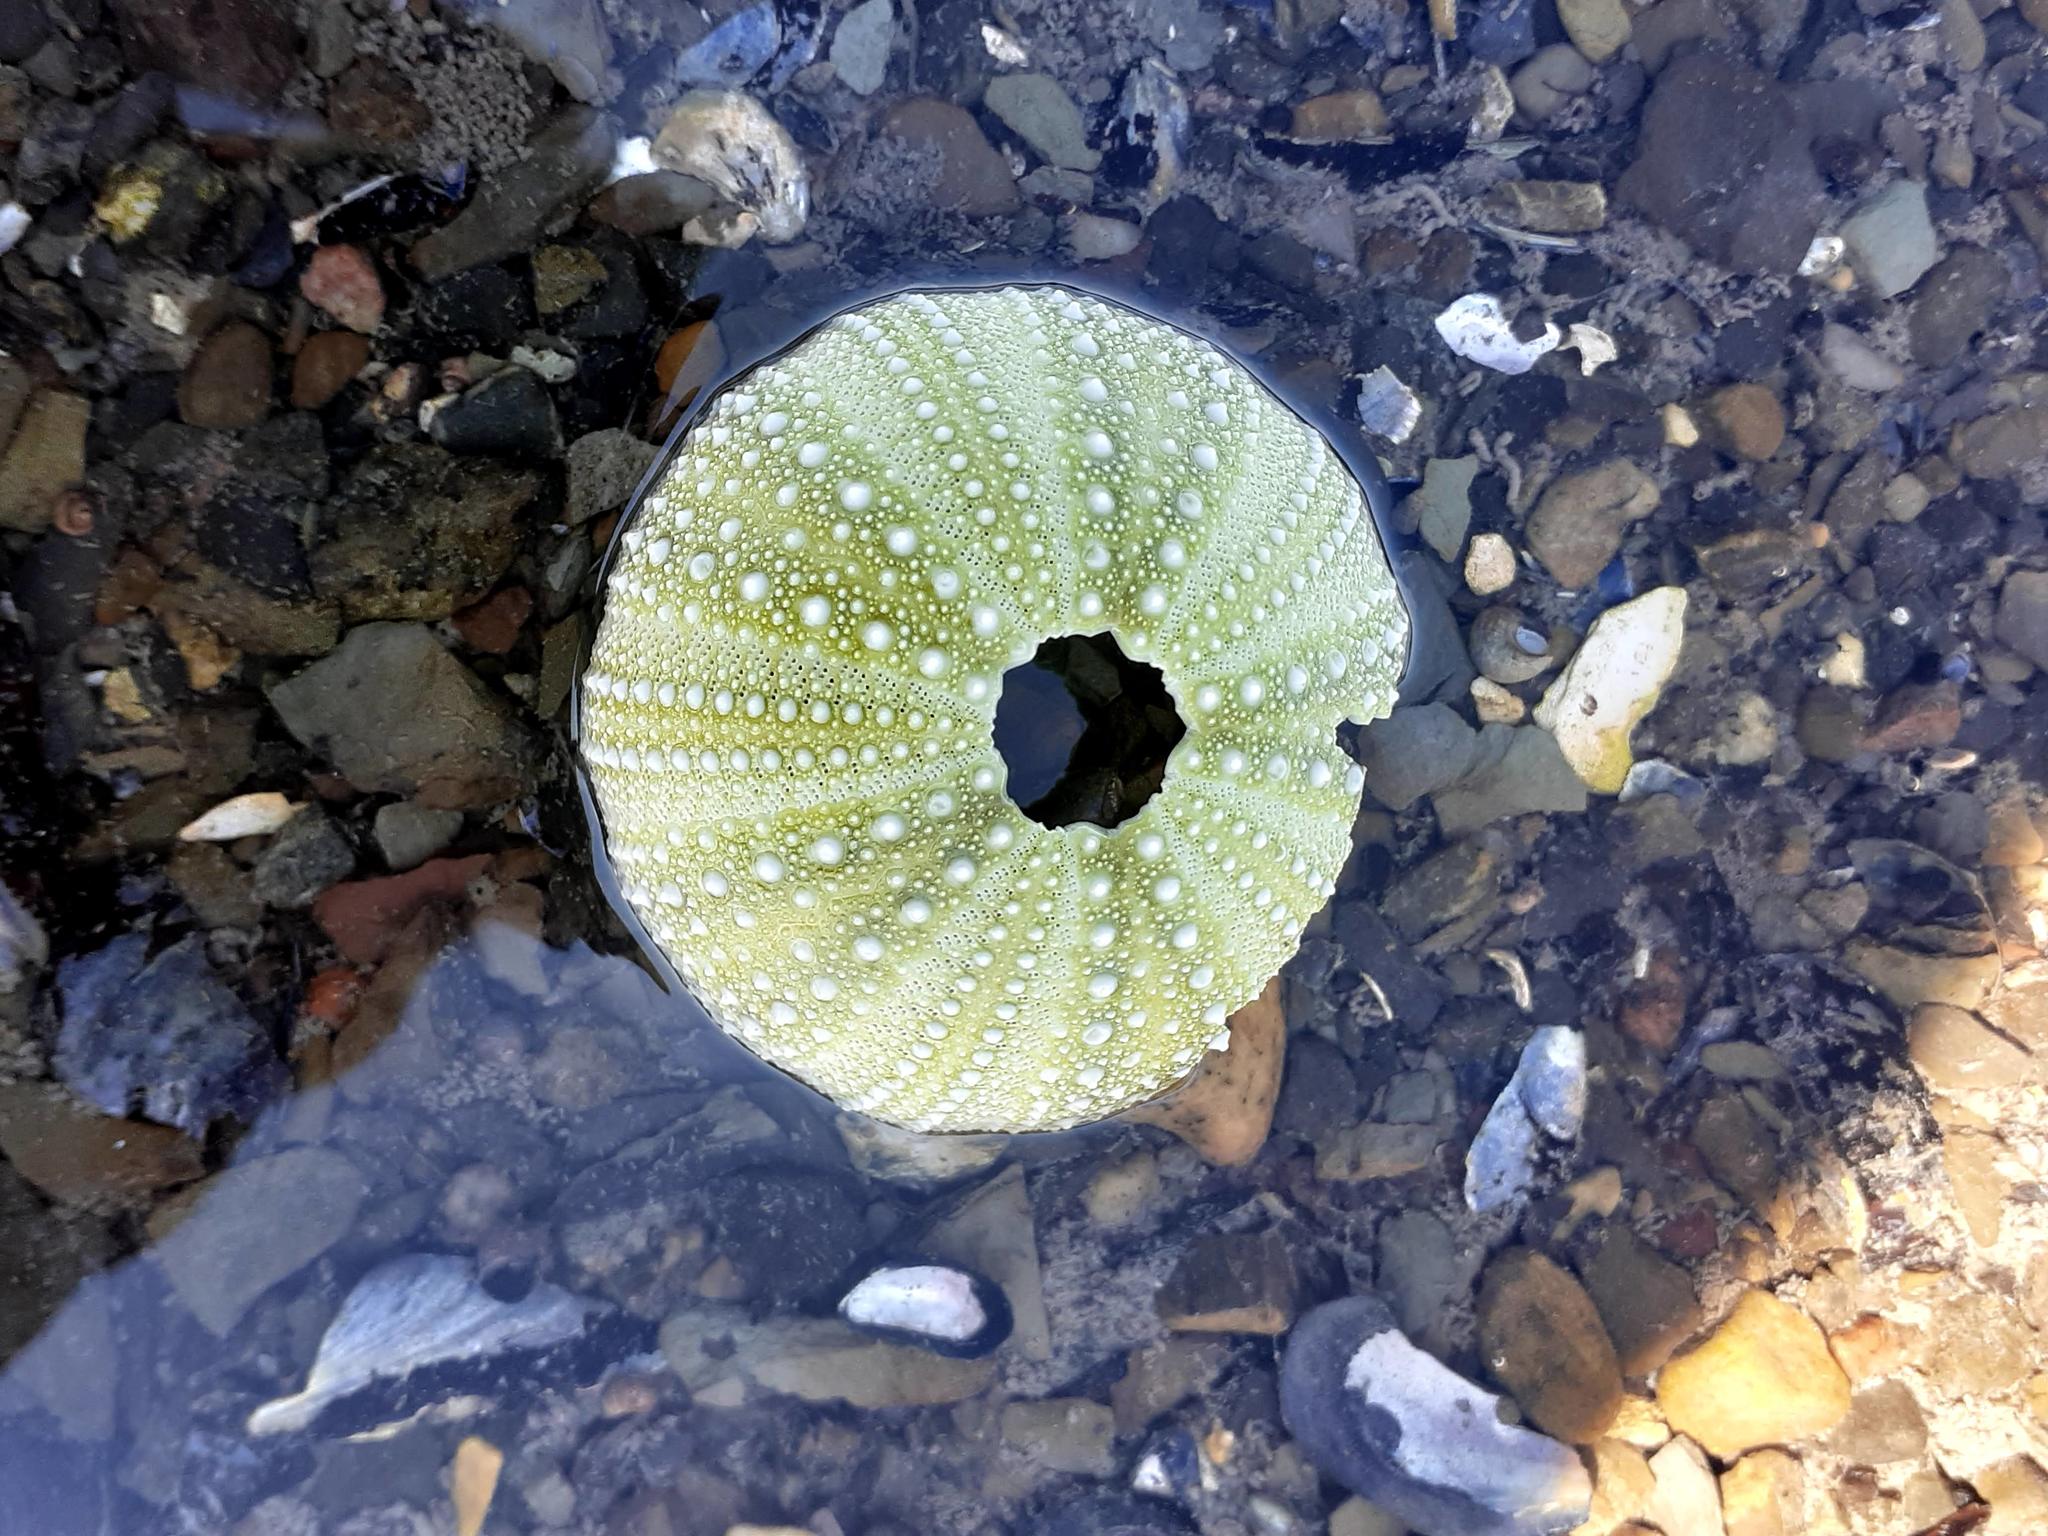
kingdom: Animalia
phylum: Echinodermata
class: Echinoidea
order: Camarodonta
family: Strongylocentrotidae
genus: Strongylocentrotus
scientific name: Strongylocentrotus droebachiensis
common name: Northern sea urchin
